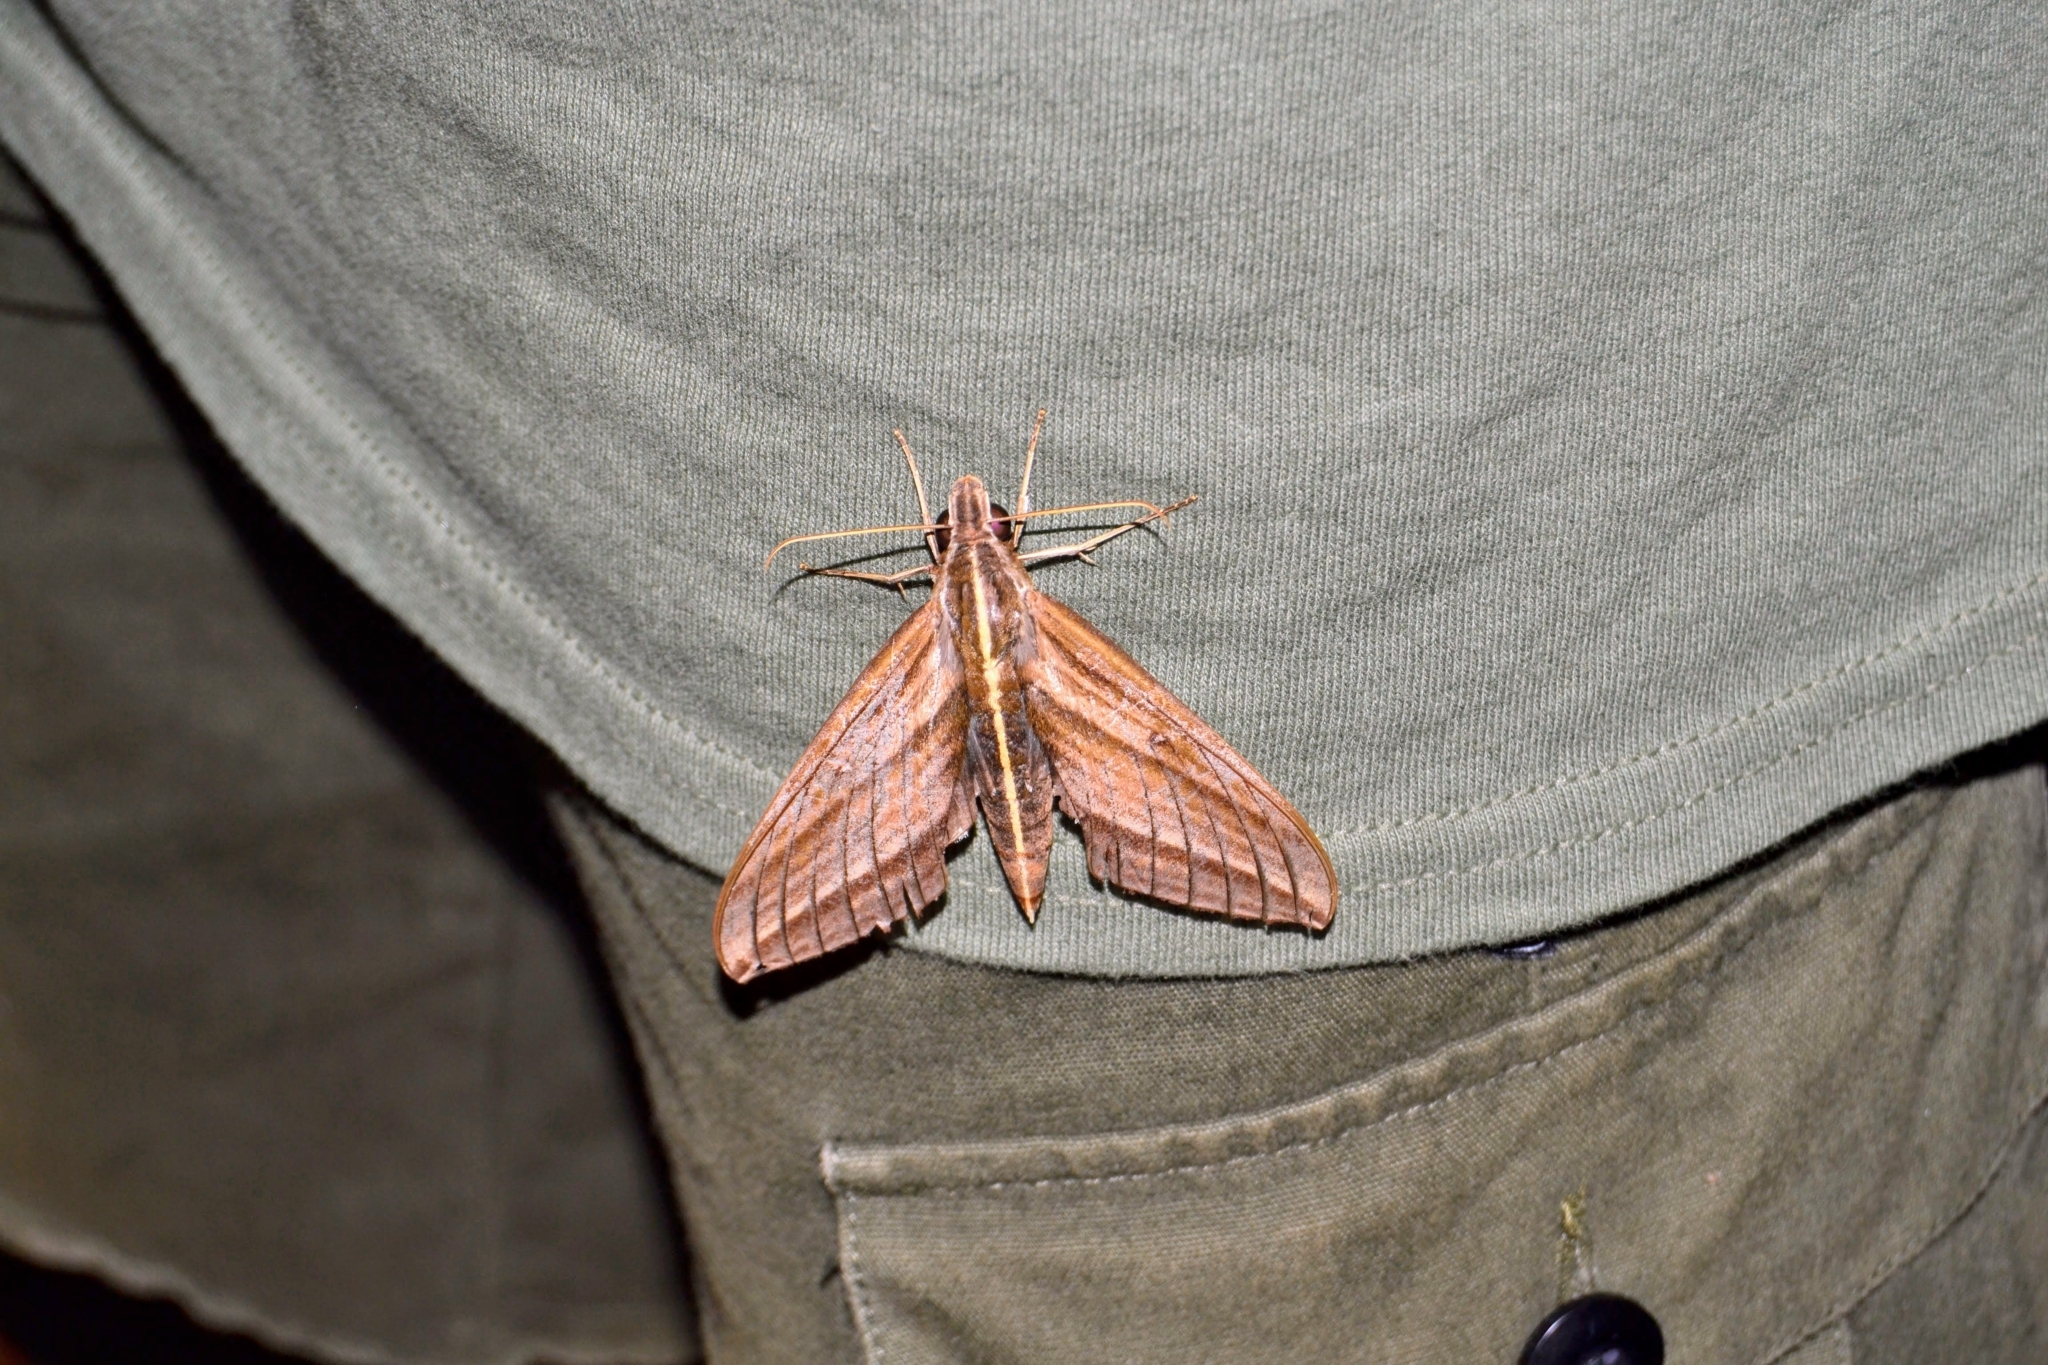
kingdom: Animalia
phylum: Arthropoda
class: Insecta
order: Lepidoptera
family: Sphingidae
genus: Elibia
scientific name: Elibia dolichus
